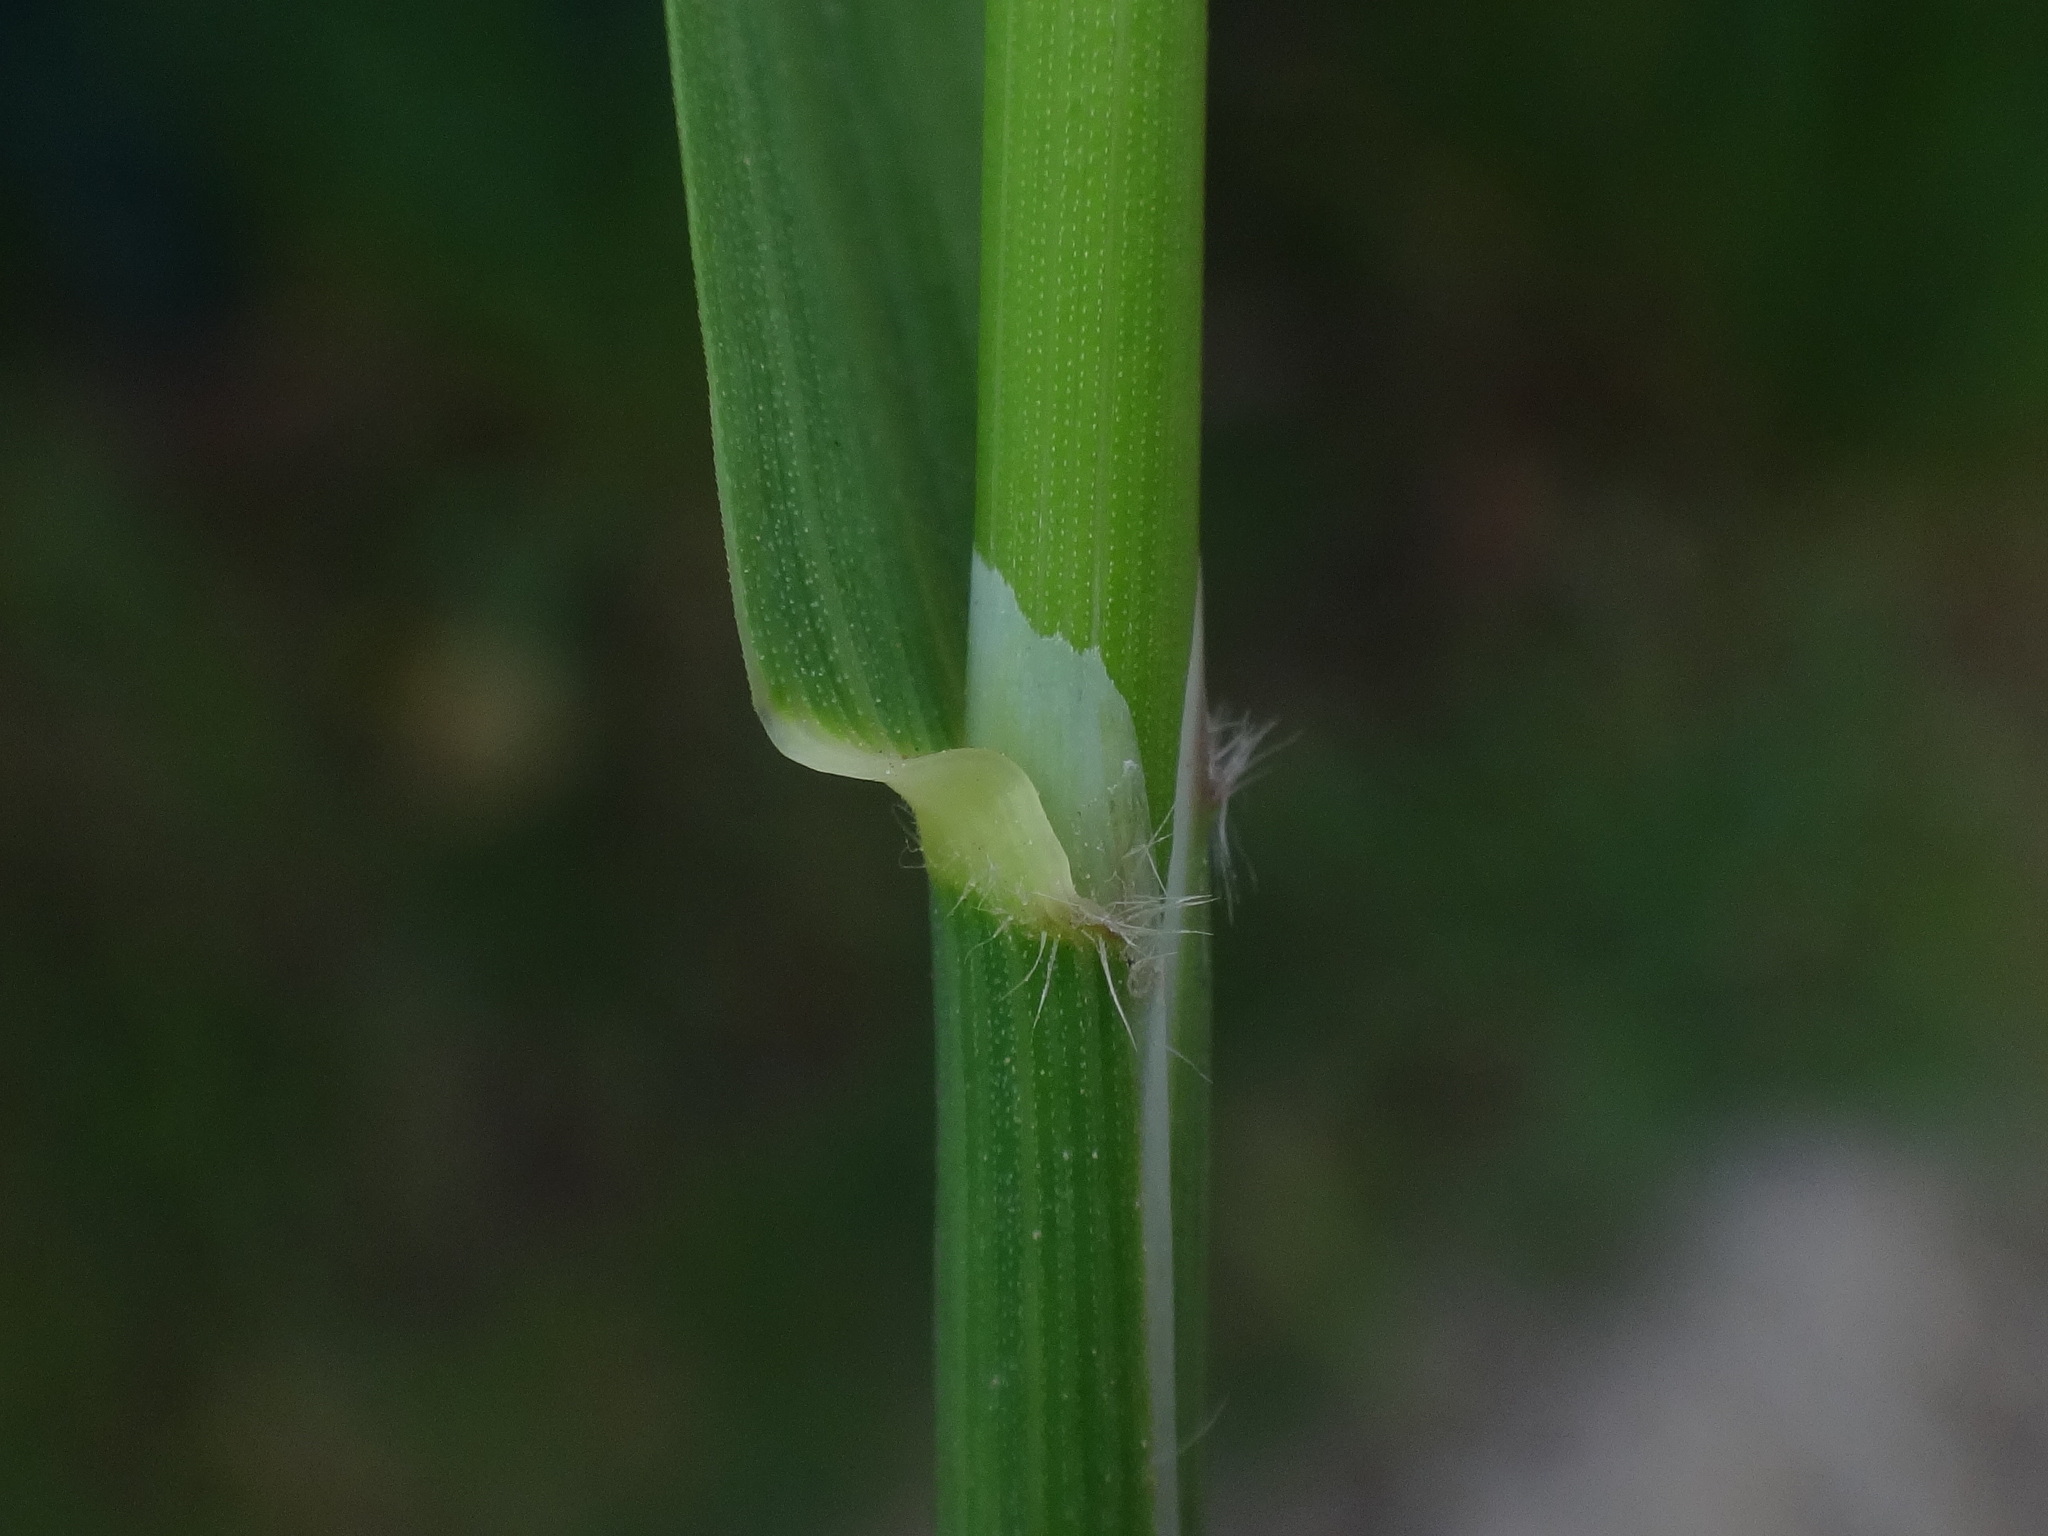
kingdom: Plantae
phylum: Tracheophyta
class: Liliopsida
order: Poales
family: Poaceae
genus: Arrhenatherum
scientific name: Arrhenatherum elatius
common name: Tall oatgrass
